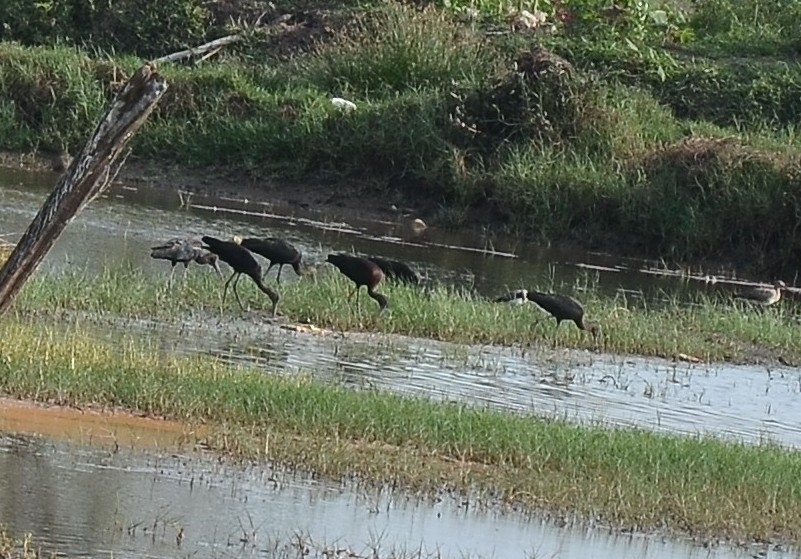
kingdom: Animalia
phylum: Chordata
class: Aves
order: Pelecaniformes
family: Threskiornithidae
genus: Plegadis
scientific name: Plegadis falcinellus
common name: Glossy ibis
